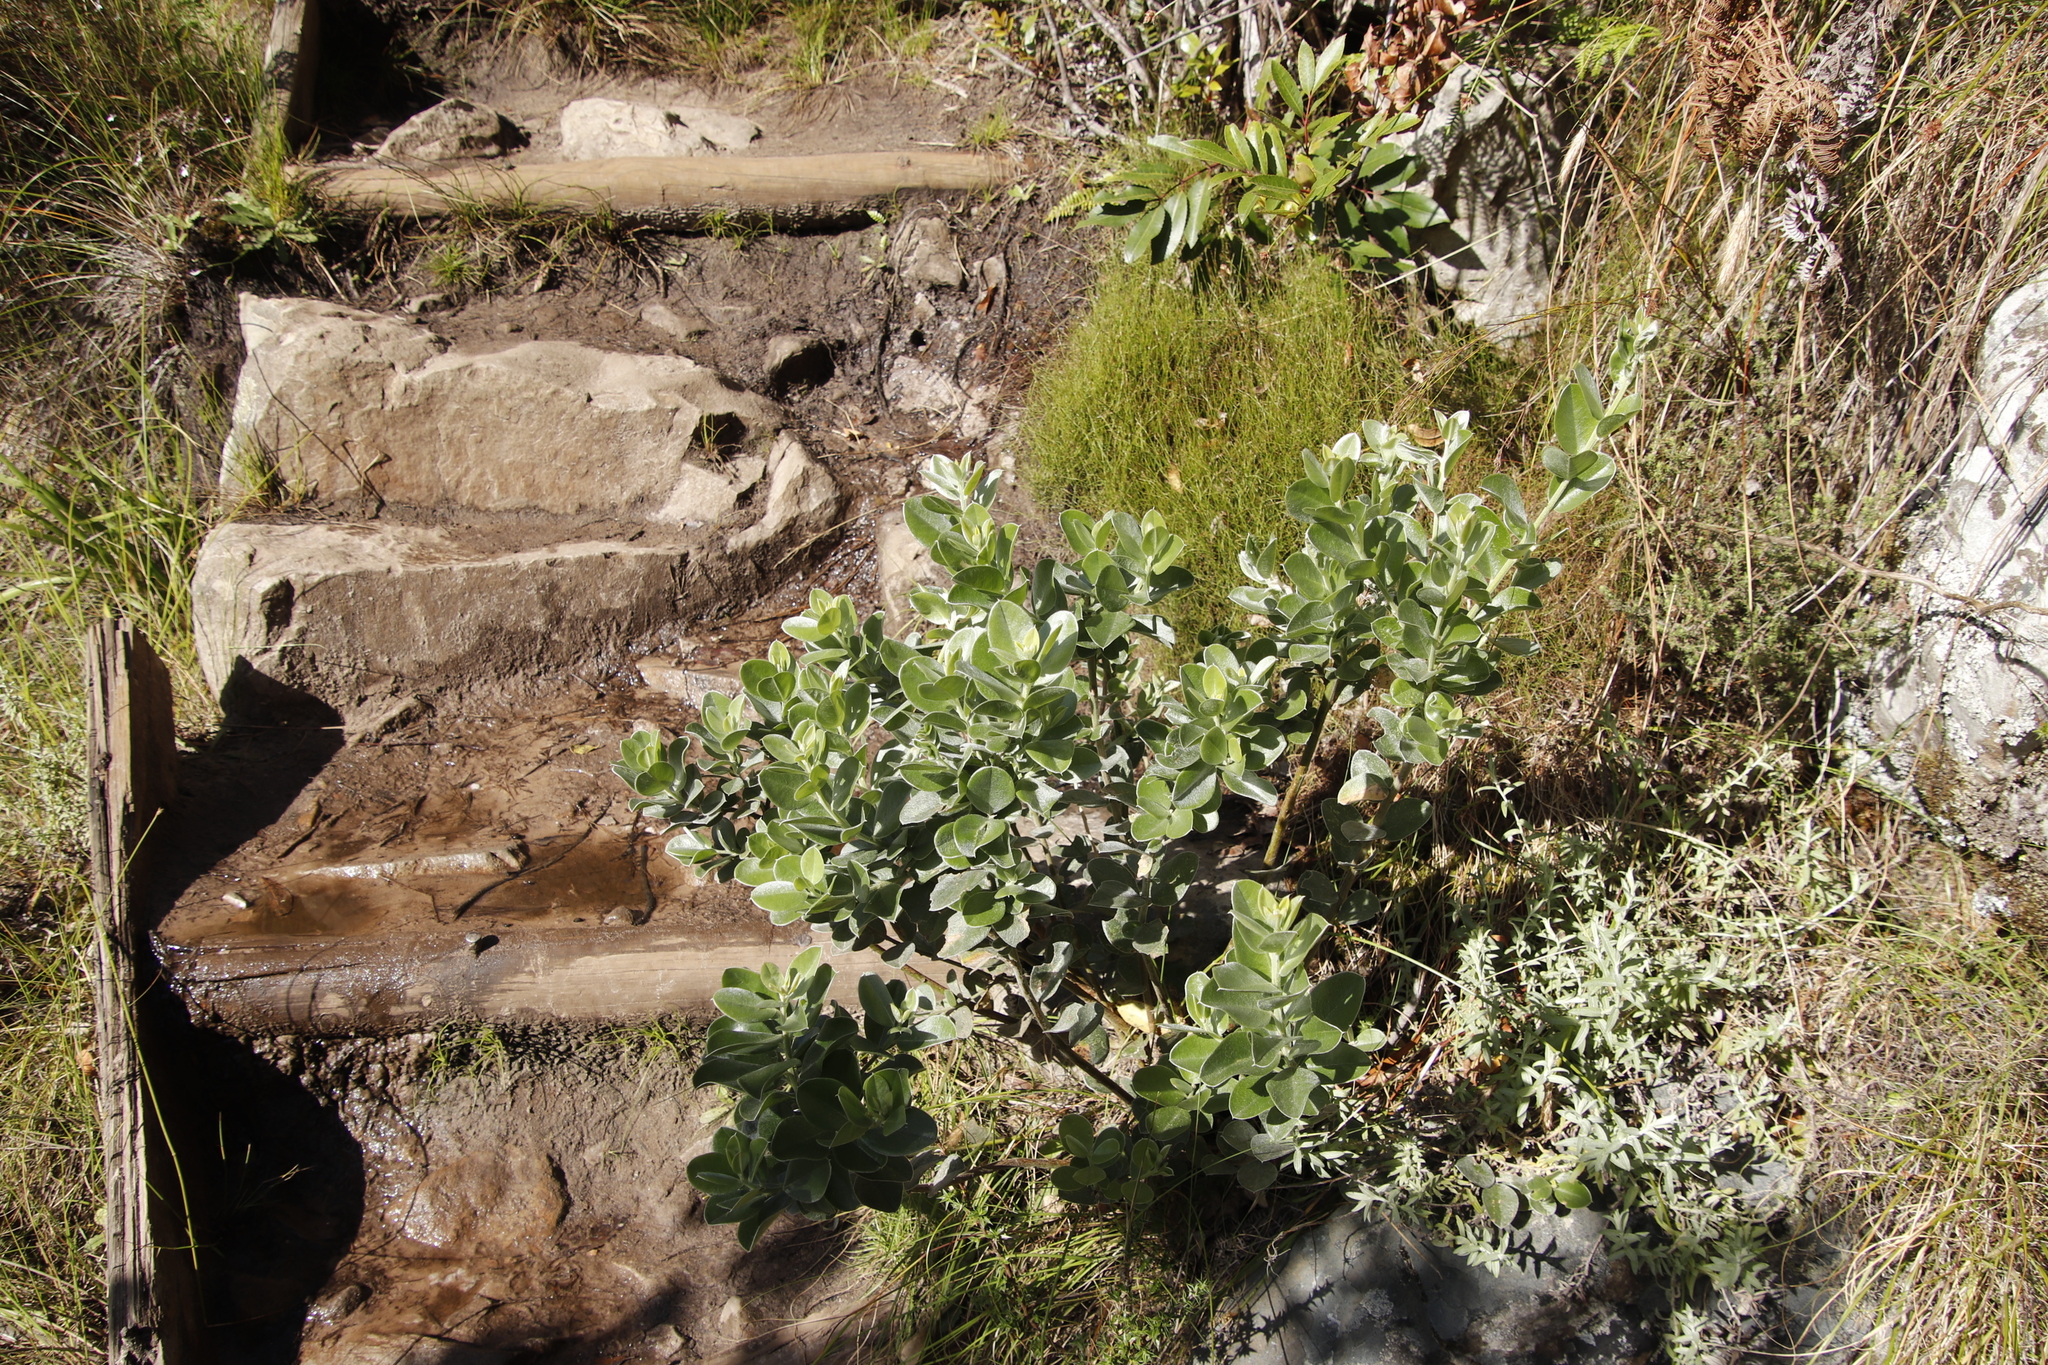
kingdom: Plantae
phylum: Tracheophyta
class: Magnoliopsida
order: Fabales
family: Fabaceae
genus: Podalyria
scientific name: Podalyria calyptrata
